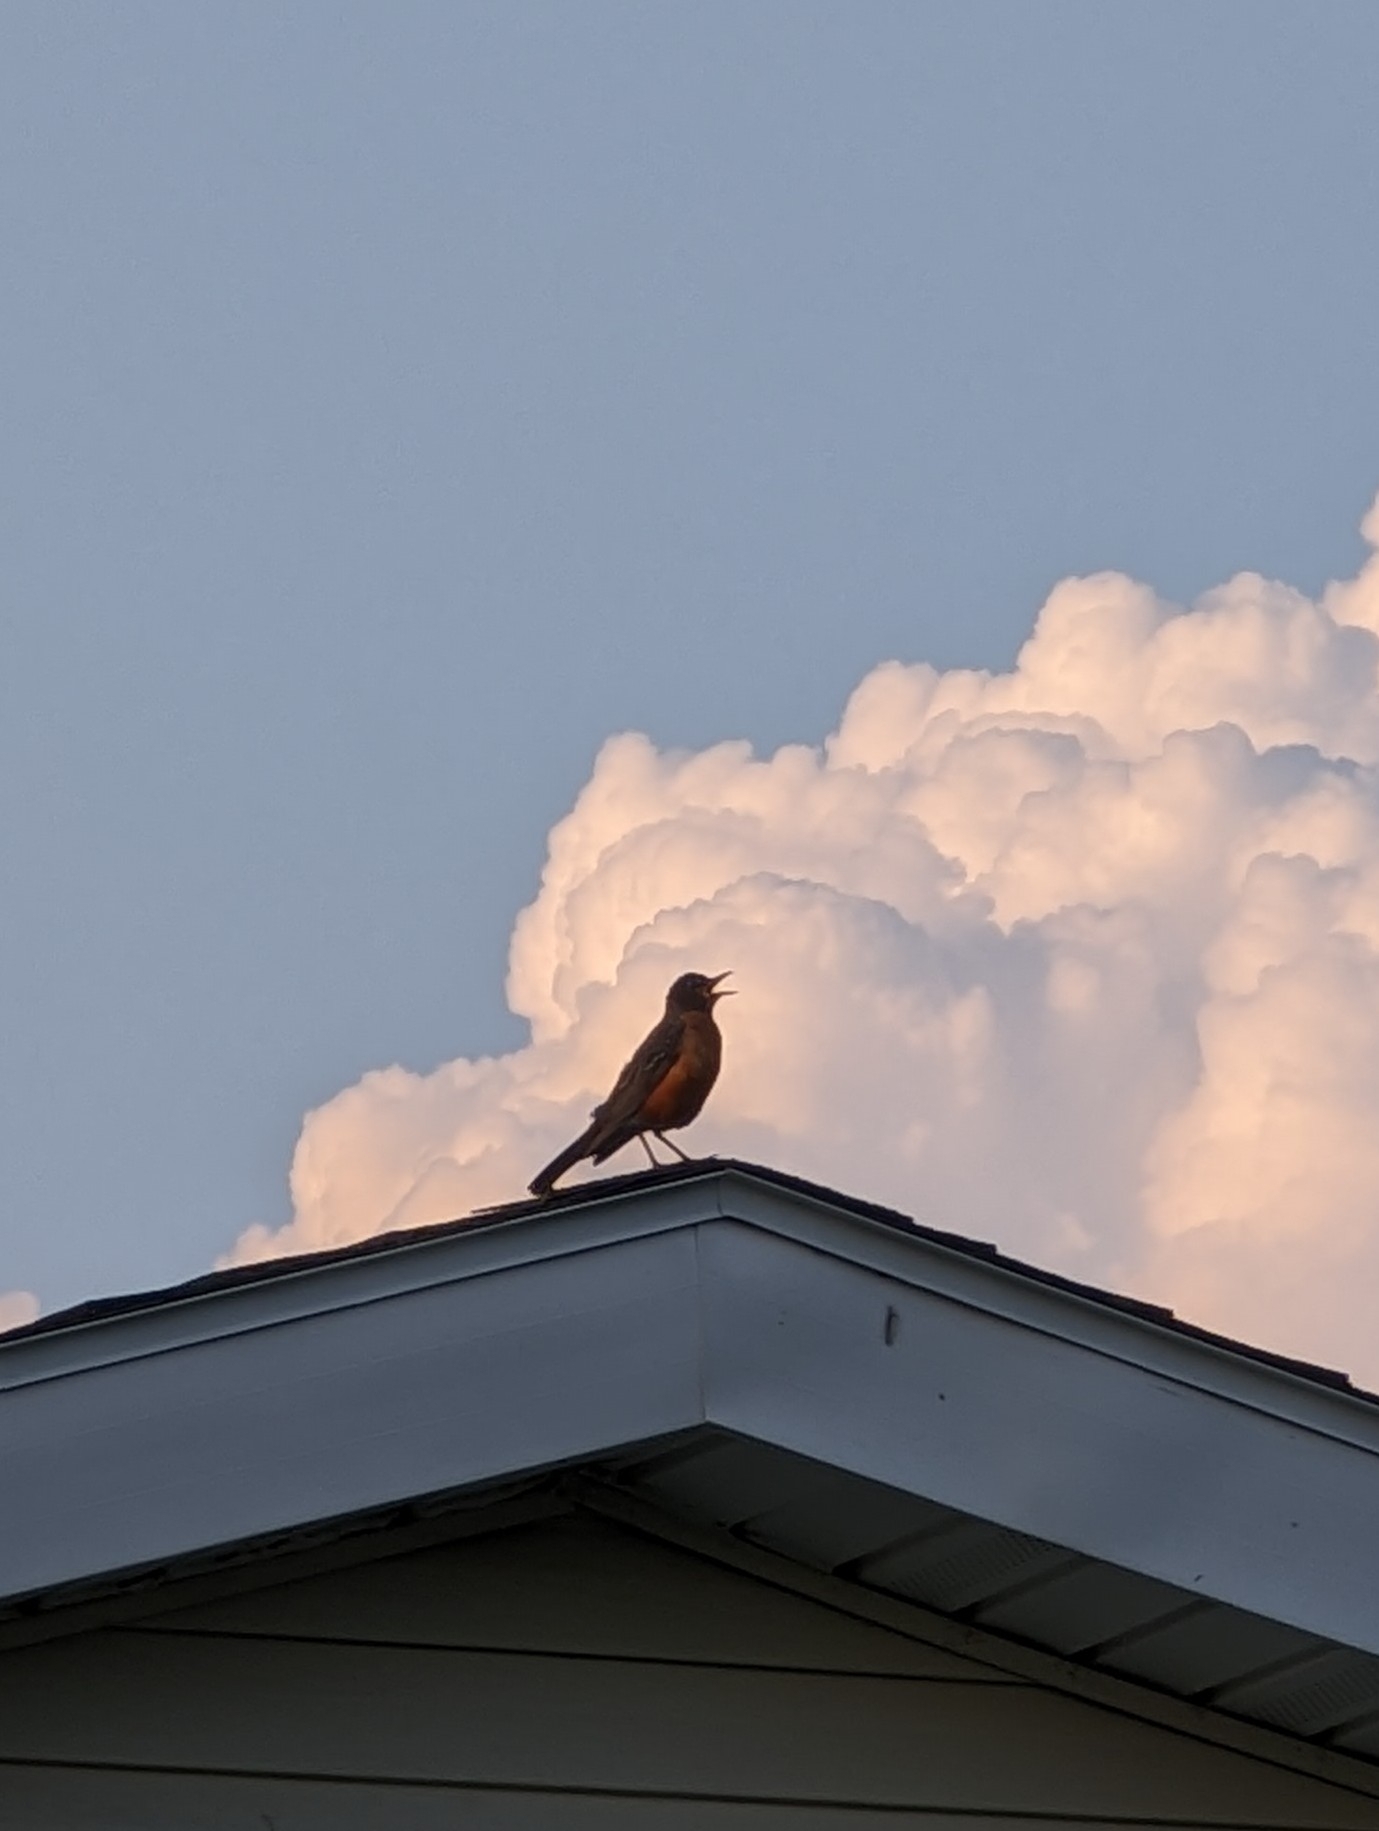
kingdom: Animalia
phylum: Chordata
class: Aves
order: Passeriformes
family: Turdidae
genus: Turdus
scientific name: Turdus migratorius
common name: American robin
